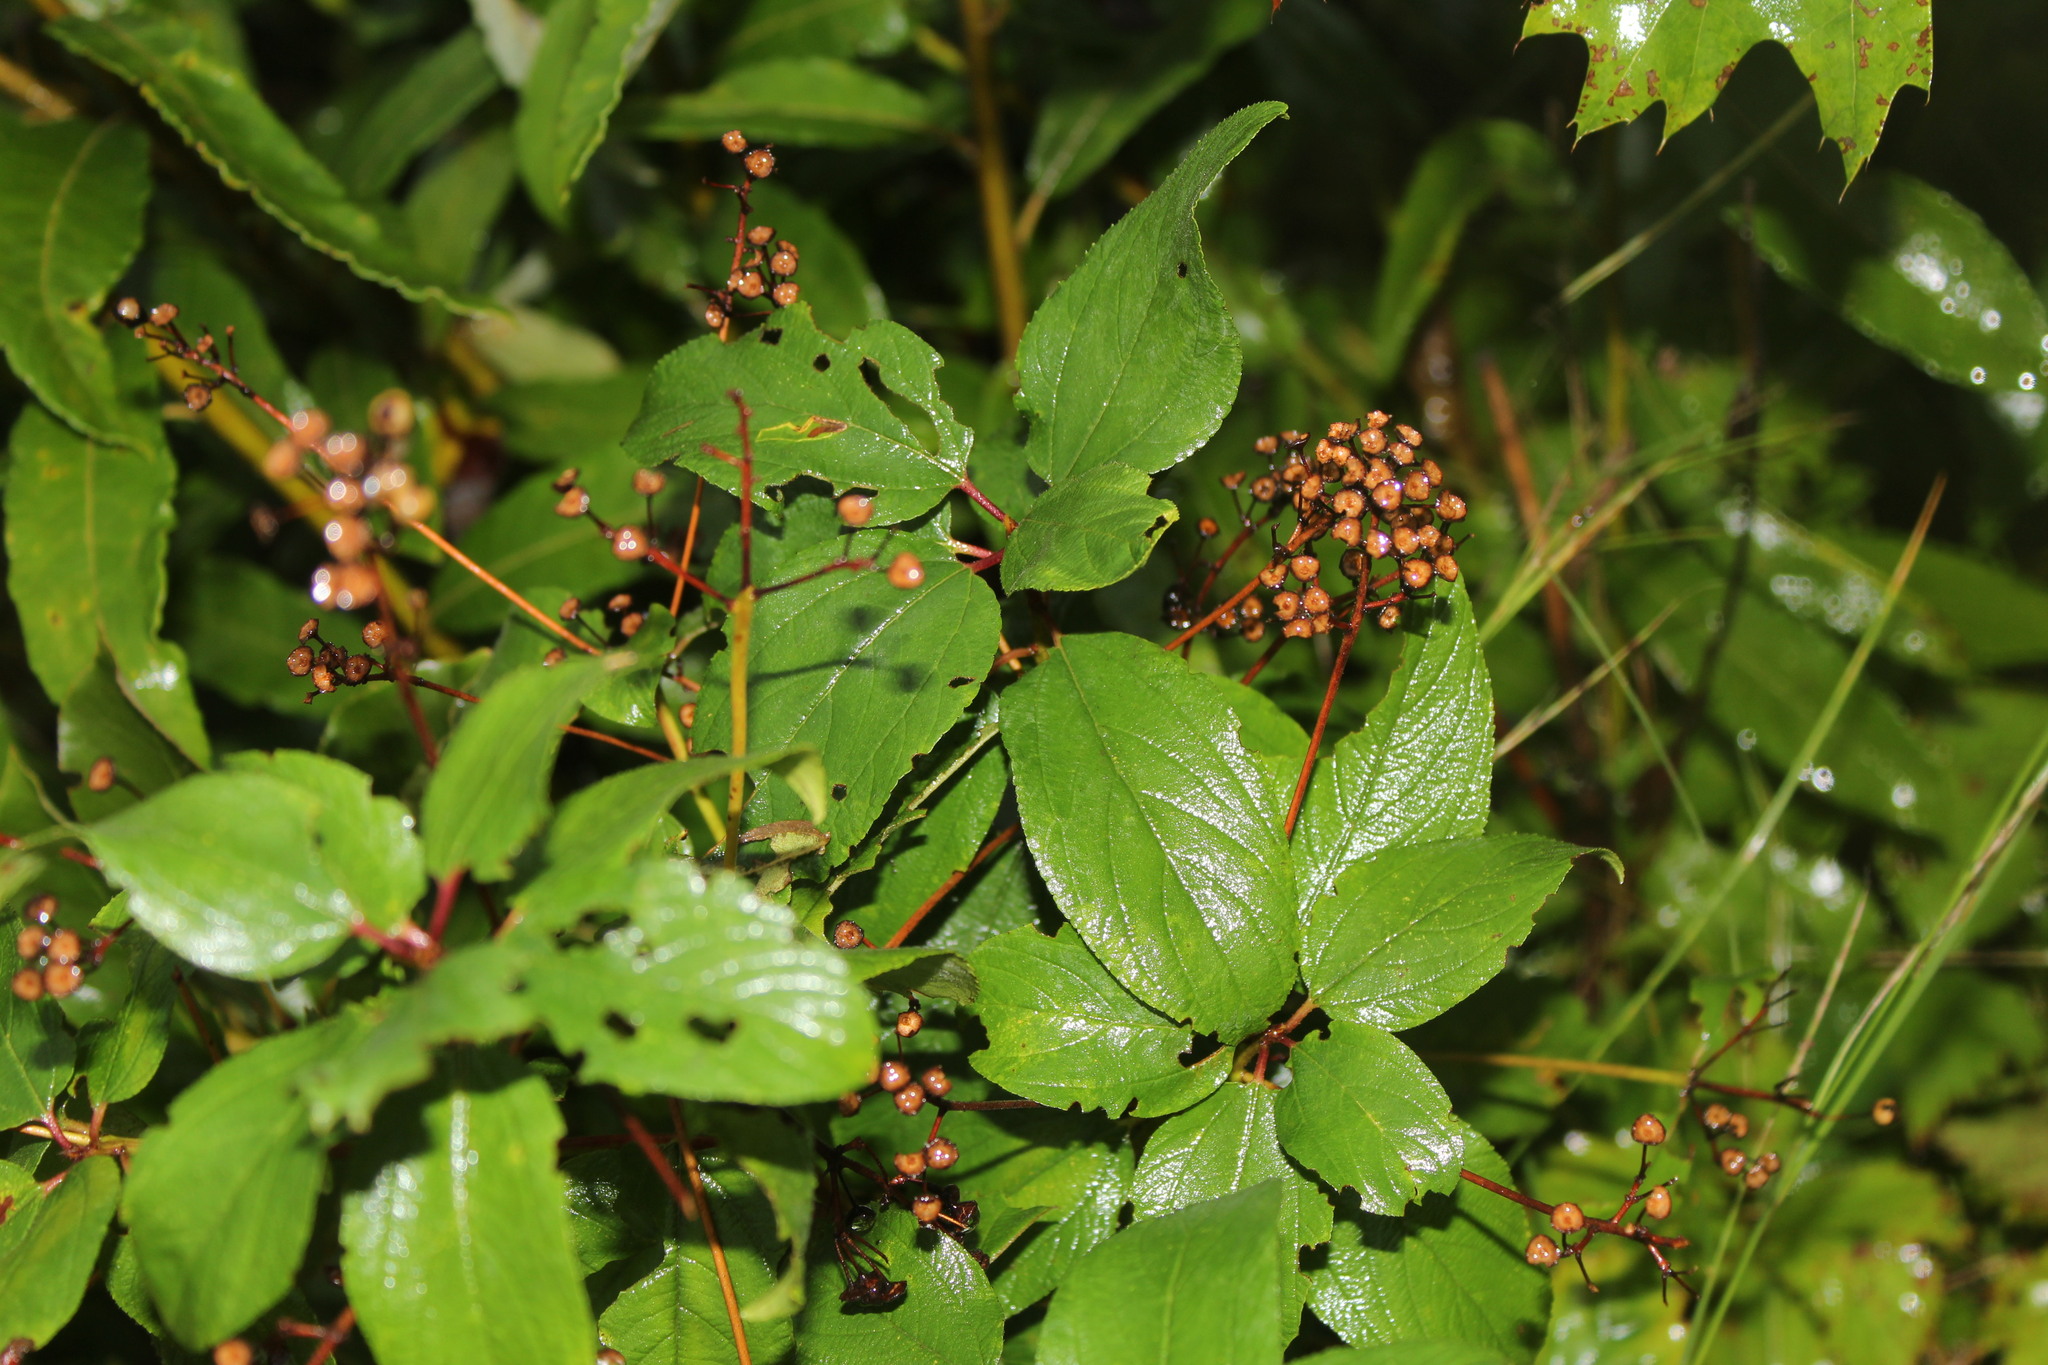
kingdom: Plantae
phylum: Tracheophyta
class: Magnoliopsida
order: Rosales
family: Rhamnaceae
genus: Ceanothus
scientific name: Ceanothus americanus
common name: Redroot
